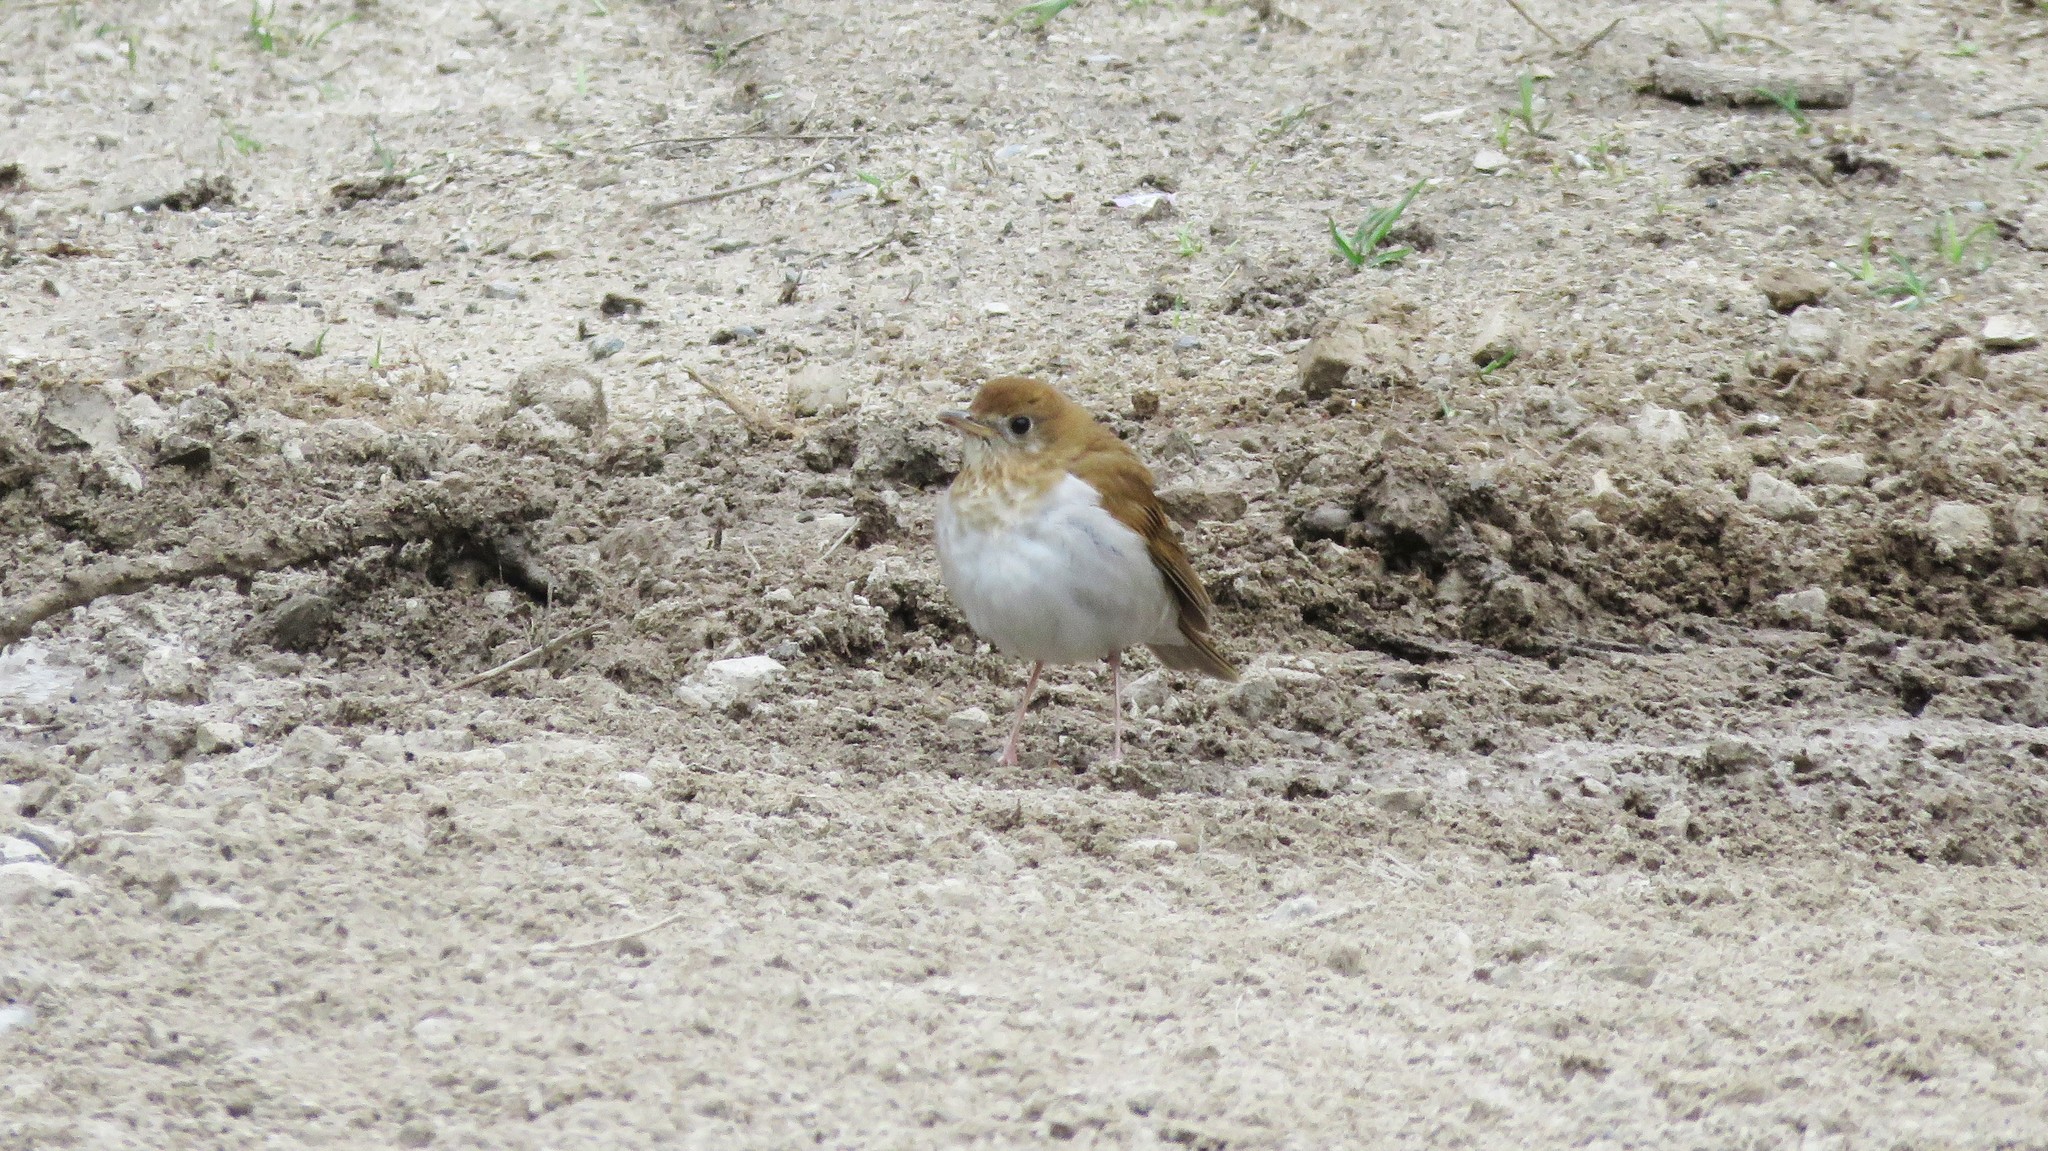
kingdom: Animalia
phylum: Chordata
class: Aves
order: Passeriformes
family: Turdidae
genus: Catharus
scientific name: Catharus fuscescens
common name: Veery
